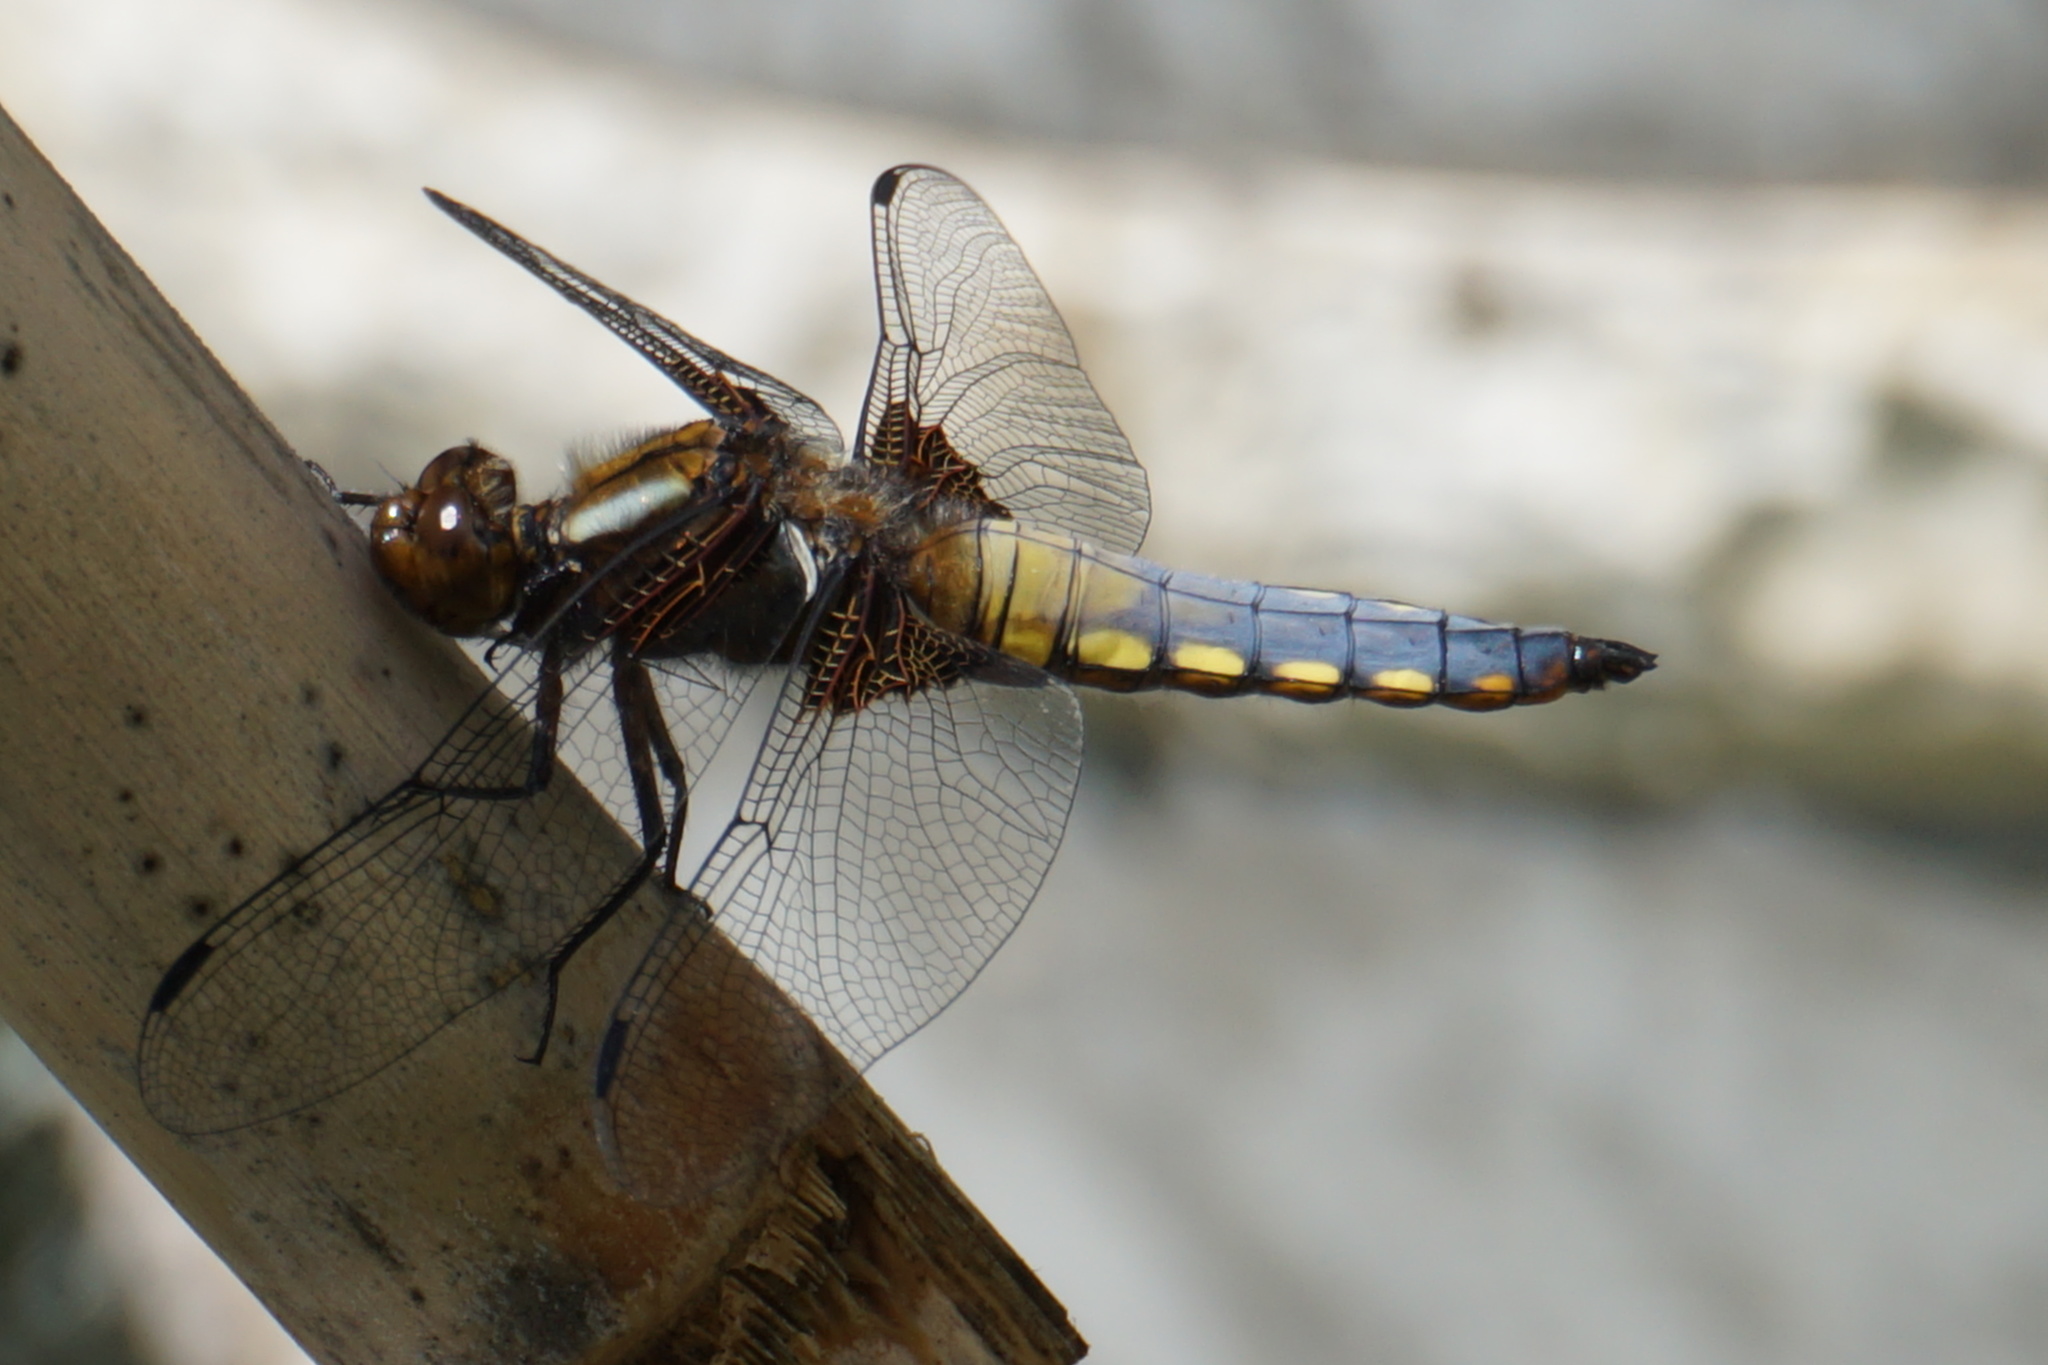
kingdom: Animalia
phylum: Arthropoda
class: Insecta
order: Odonata
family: Libellulidae
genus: Libellula
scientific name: Libellula depressa
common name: Broad-bodied chaser
